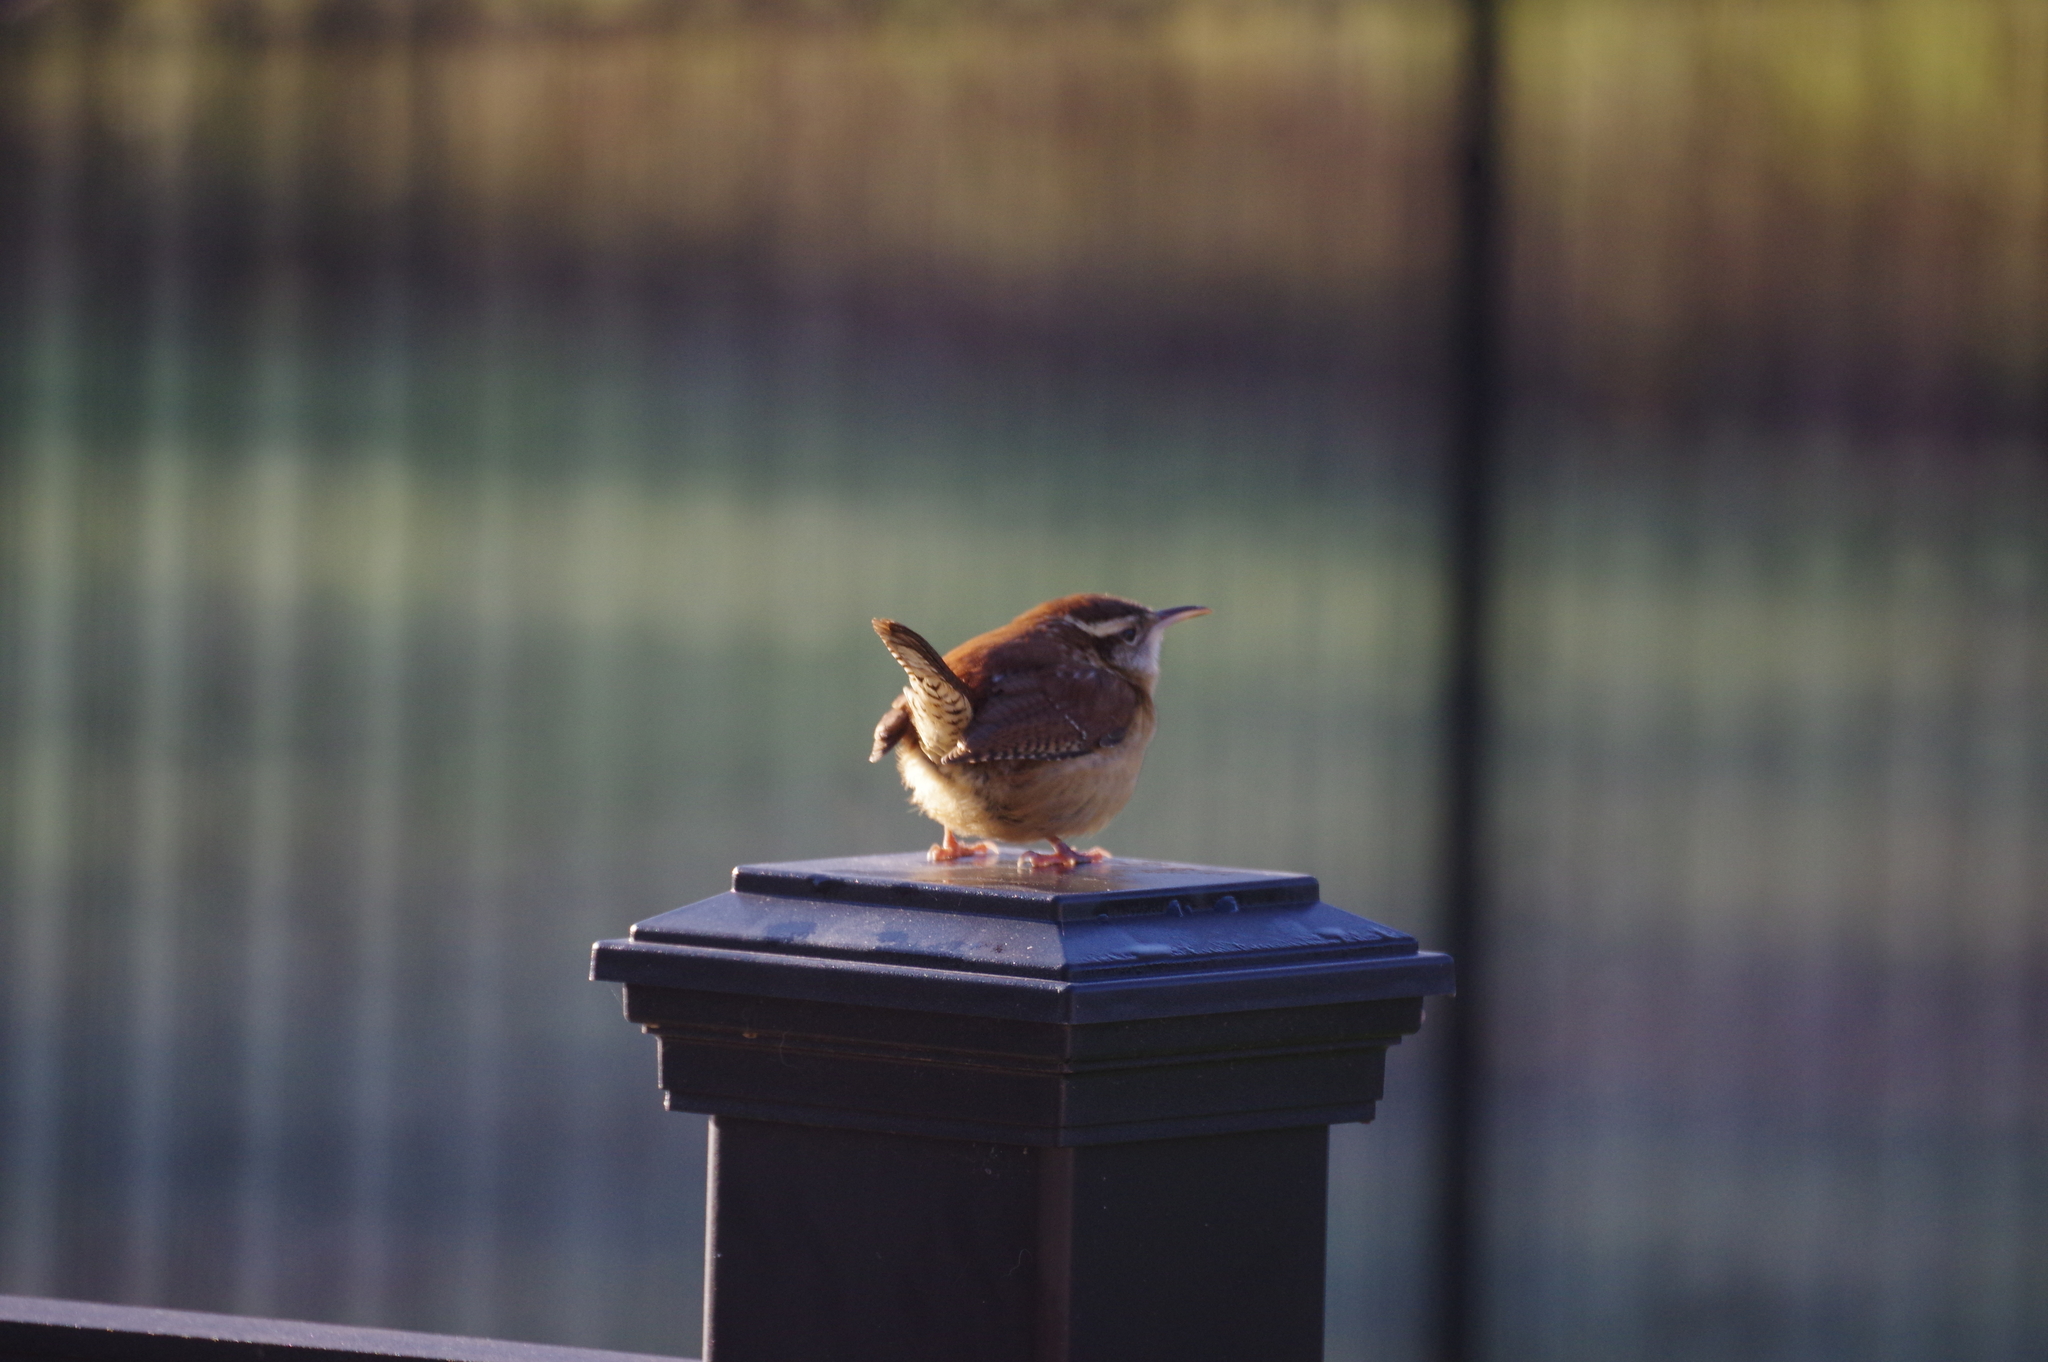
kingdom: Animalia
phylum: Chordata
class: Aves
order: Passeriformes
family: Troglodytidae
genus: Thryothorus
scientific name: Thryothorus ludovicianus
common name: Carolina wren
